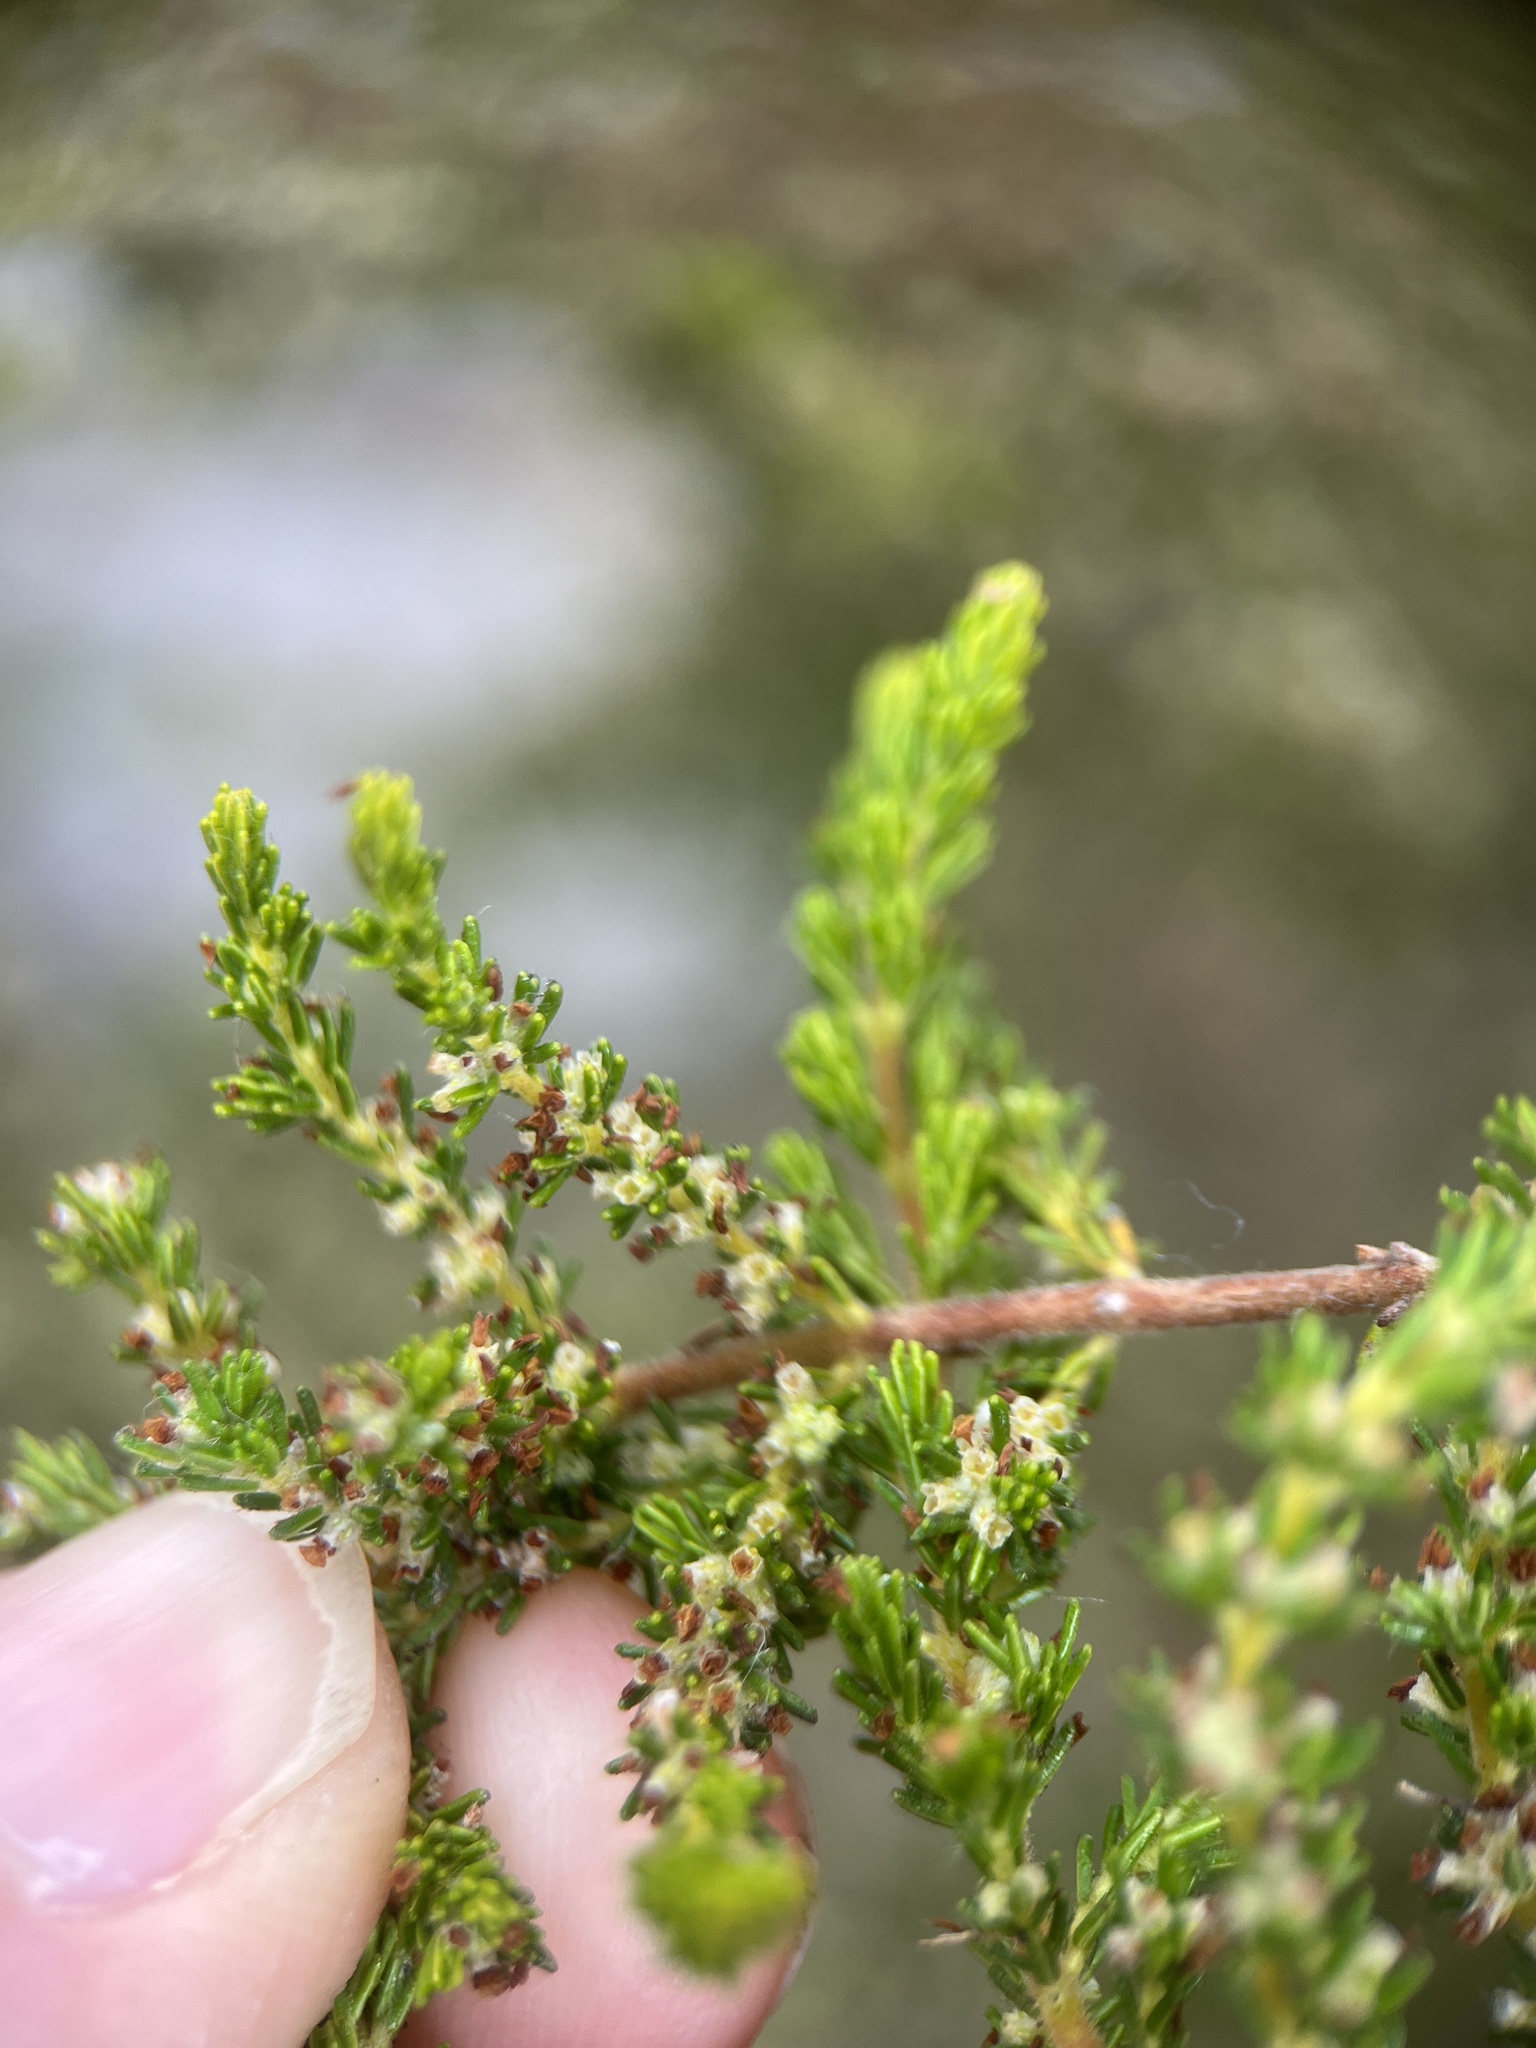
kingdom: Plantae
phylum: Tracheophyta
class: Magnoliopsida
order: Ericales
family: Ericaceae
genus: Erica
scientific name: Erica muscosa
